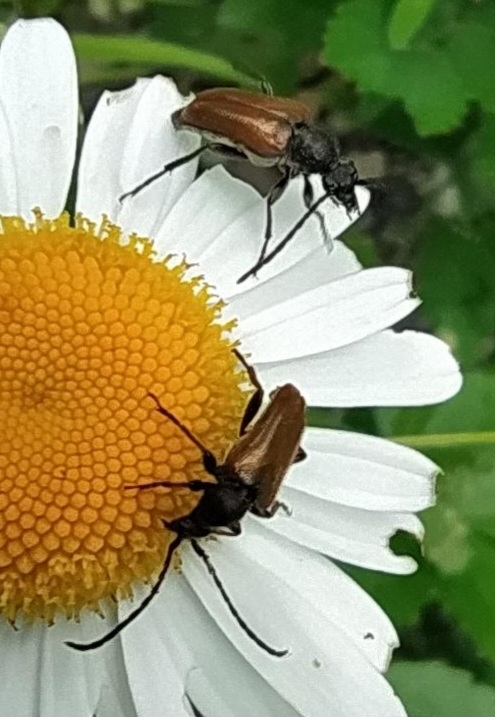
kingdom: Animalia
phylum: Arthropoda
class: Insecta
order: Coleoptera
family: Cerambycidae
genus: Pseudovadonia
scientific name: Pseudovadonia livida
